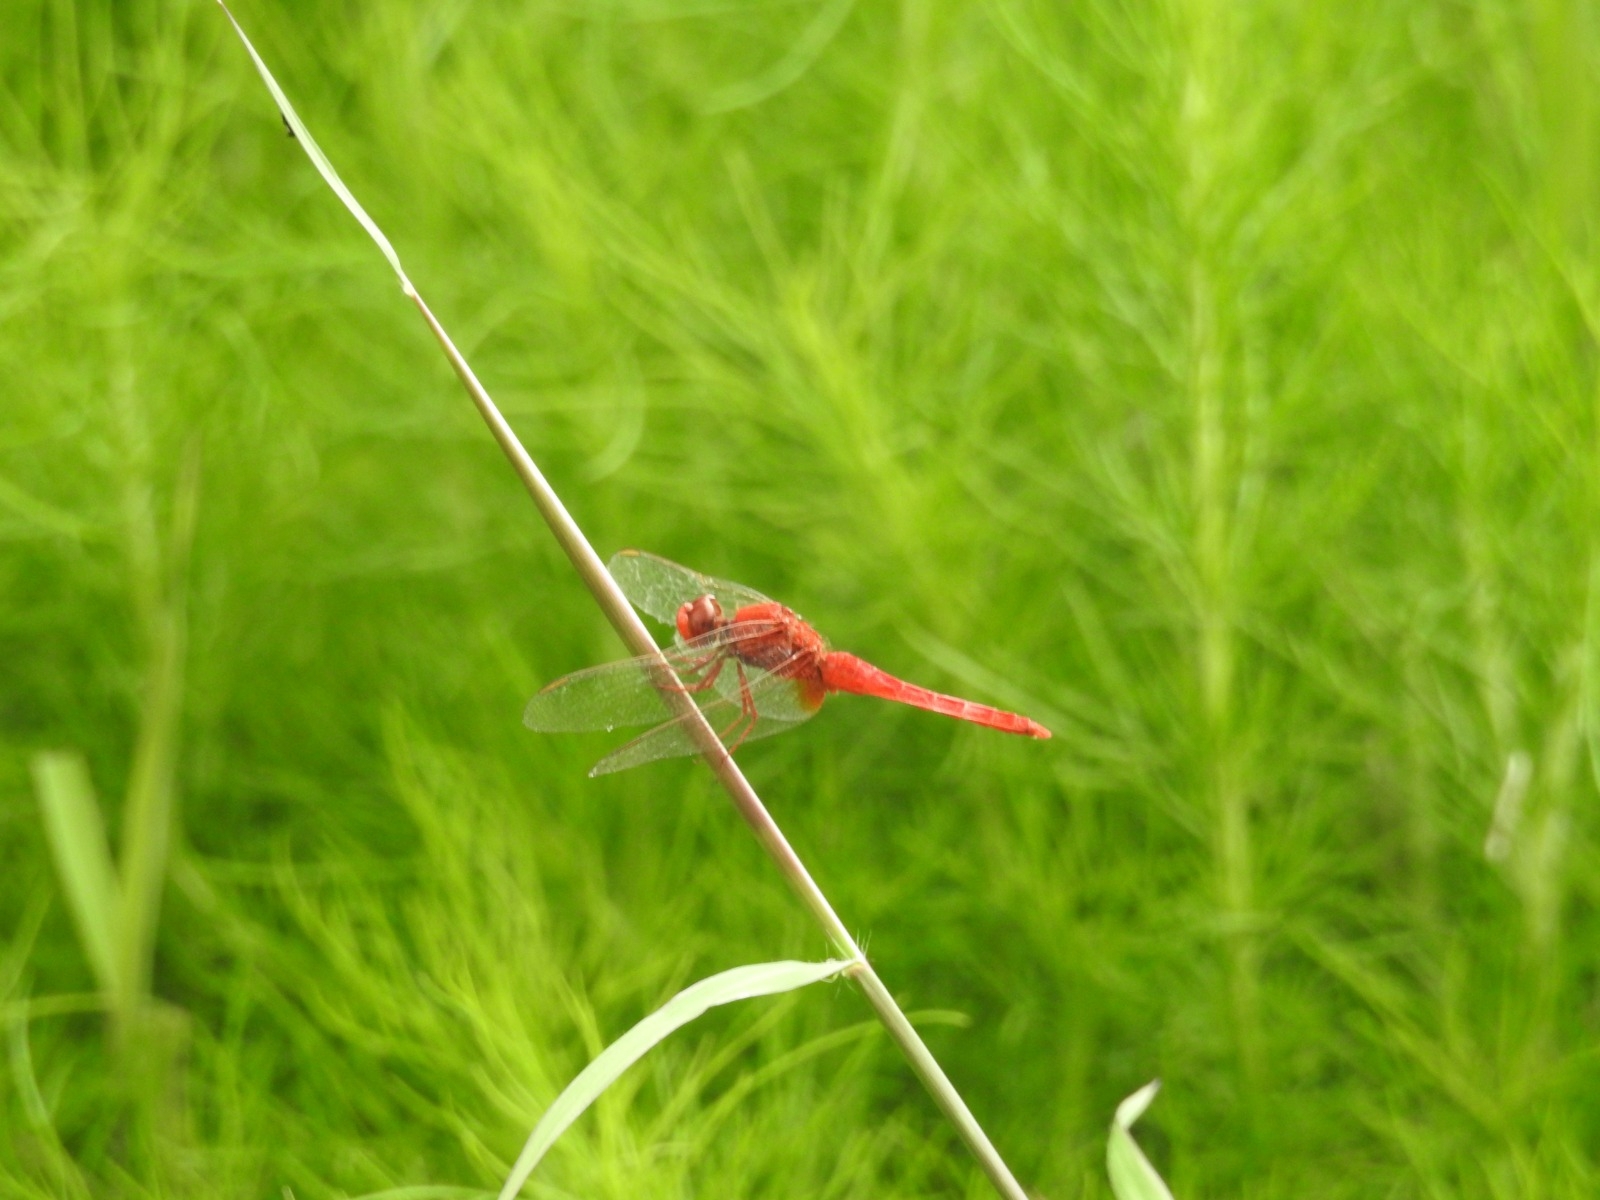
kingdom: Animalia
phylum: Arthropoda
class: Insecta
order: Odonata
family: Libellulidae
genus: Crocothemis
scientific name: Crocothemis servilia
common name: Scarlet skimmer
